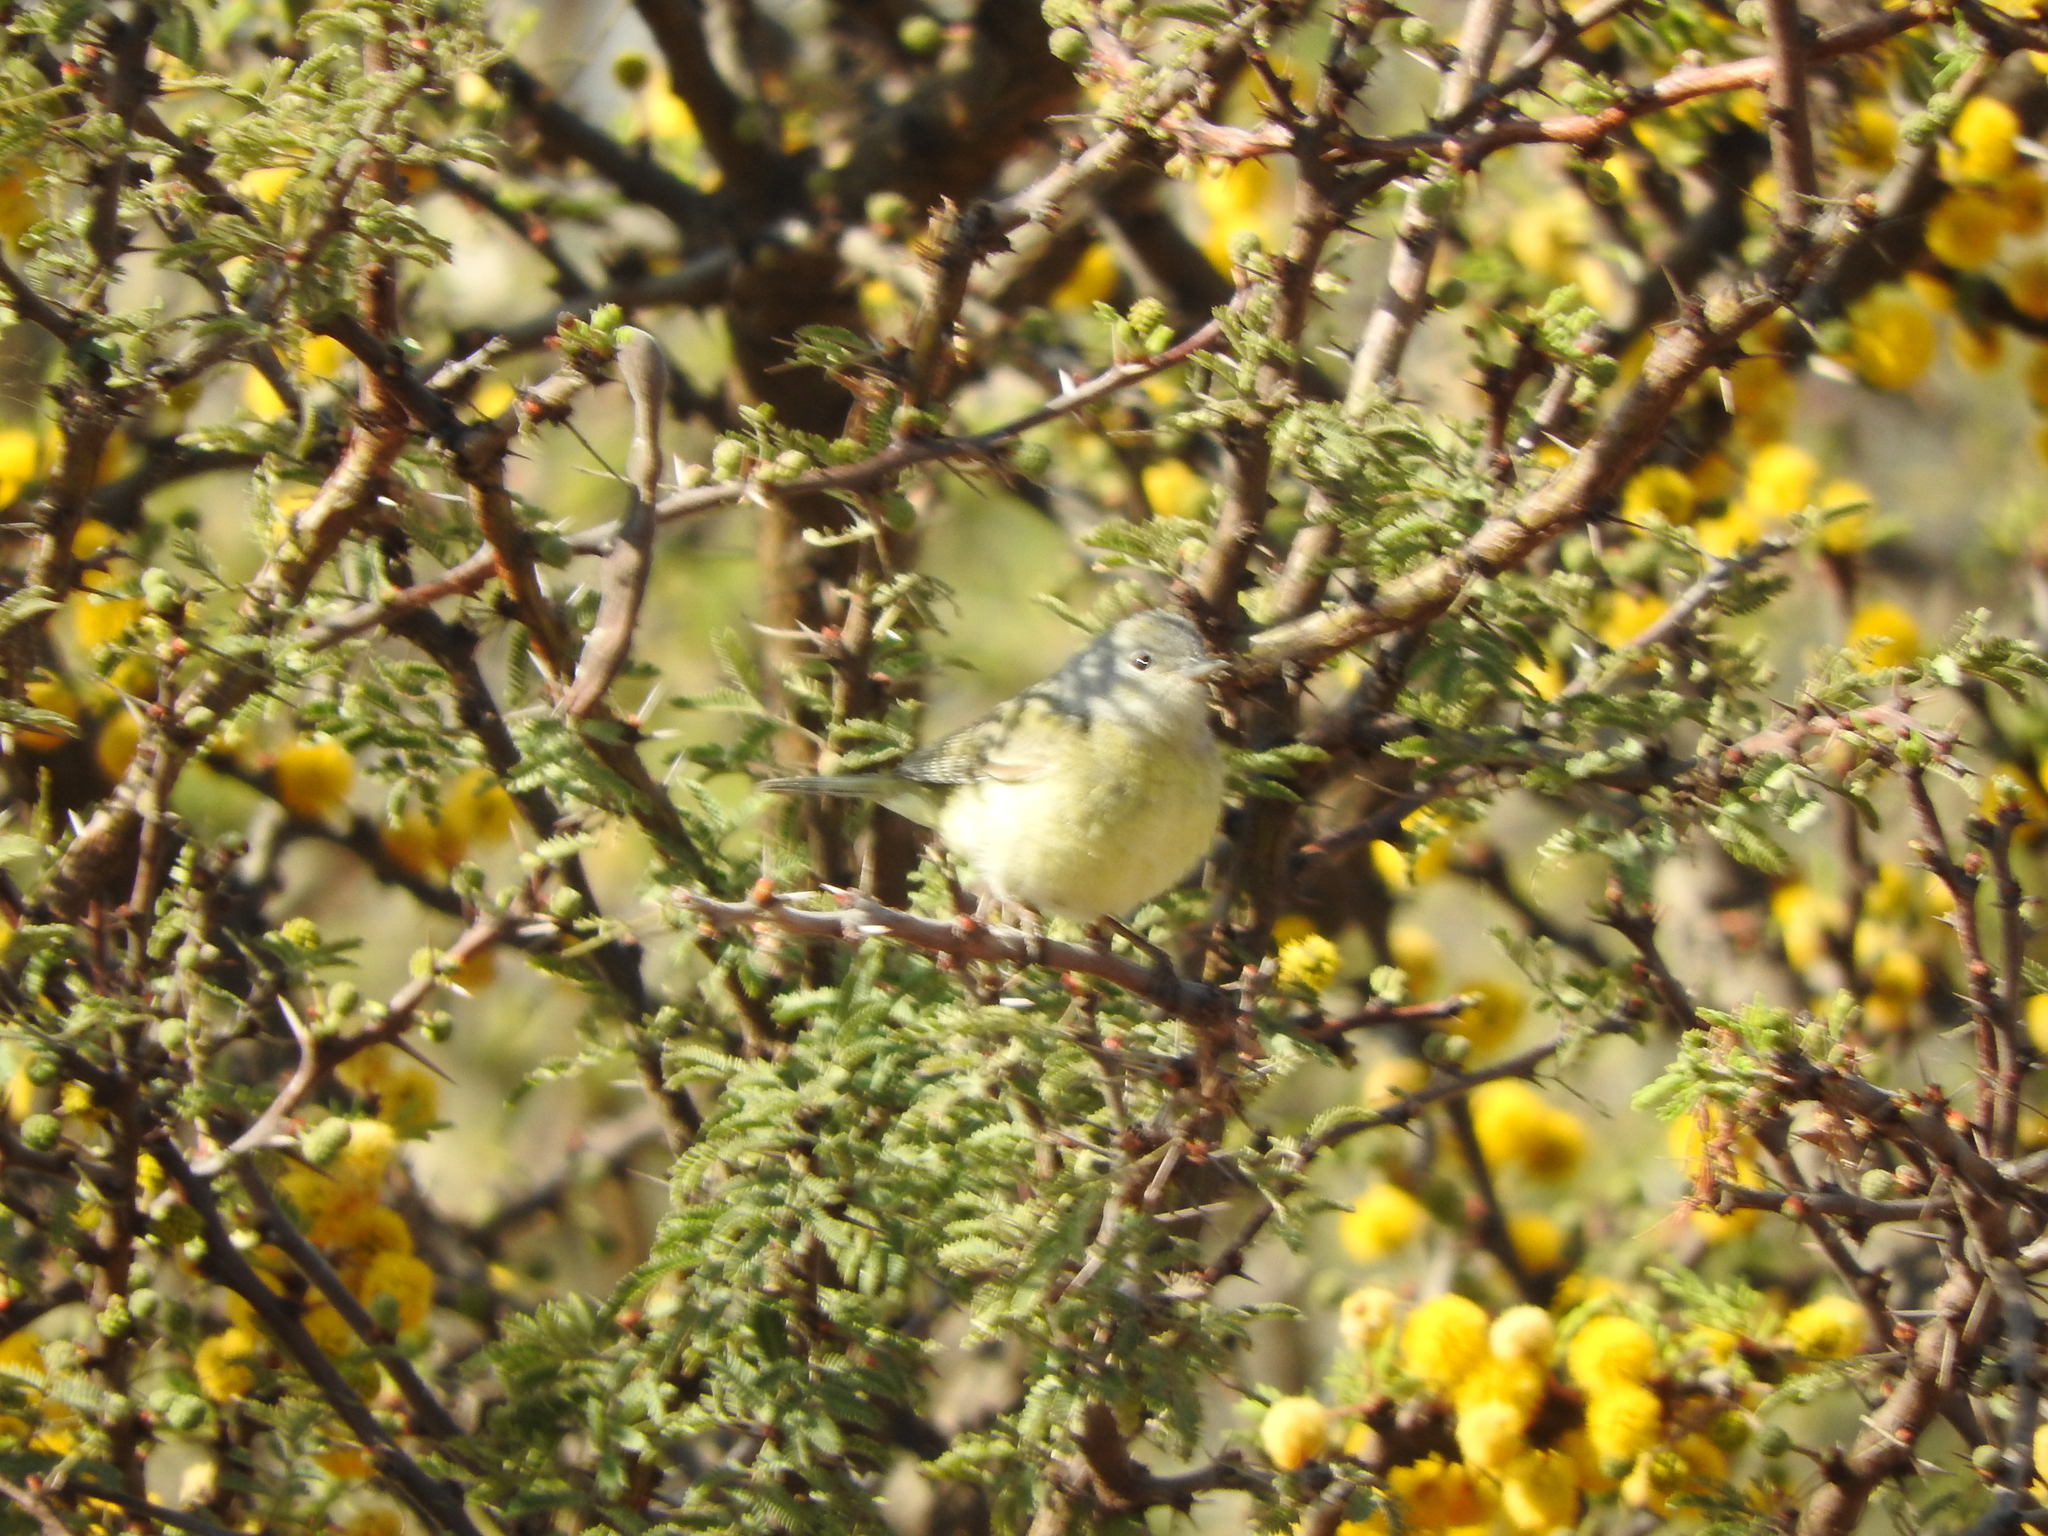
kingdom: Animalia
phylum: Chordata
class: Aves
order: Passeriformes
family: Parulidae
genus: Leiothlypis
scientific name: Leiothlypis celata
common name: Orange-crowned warbler
